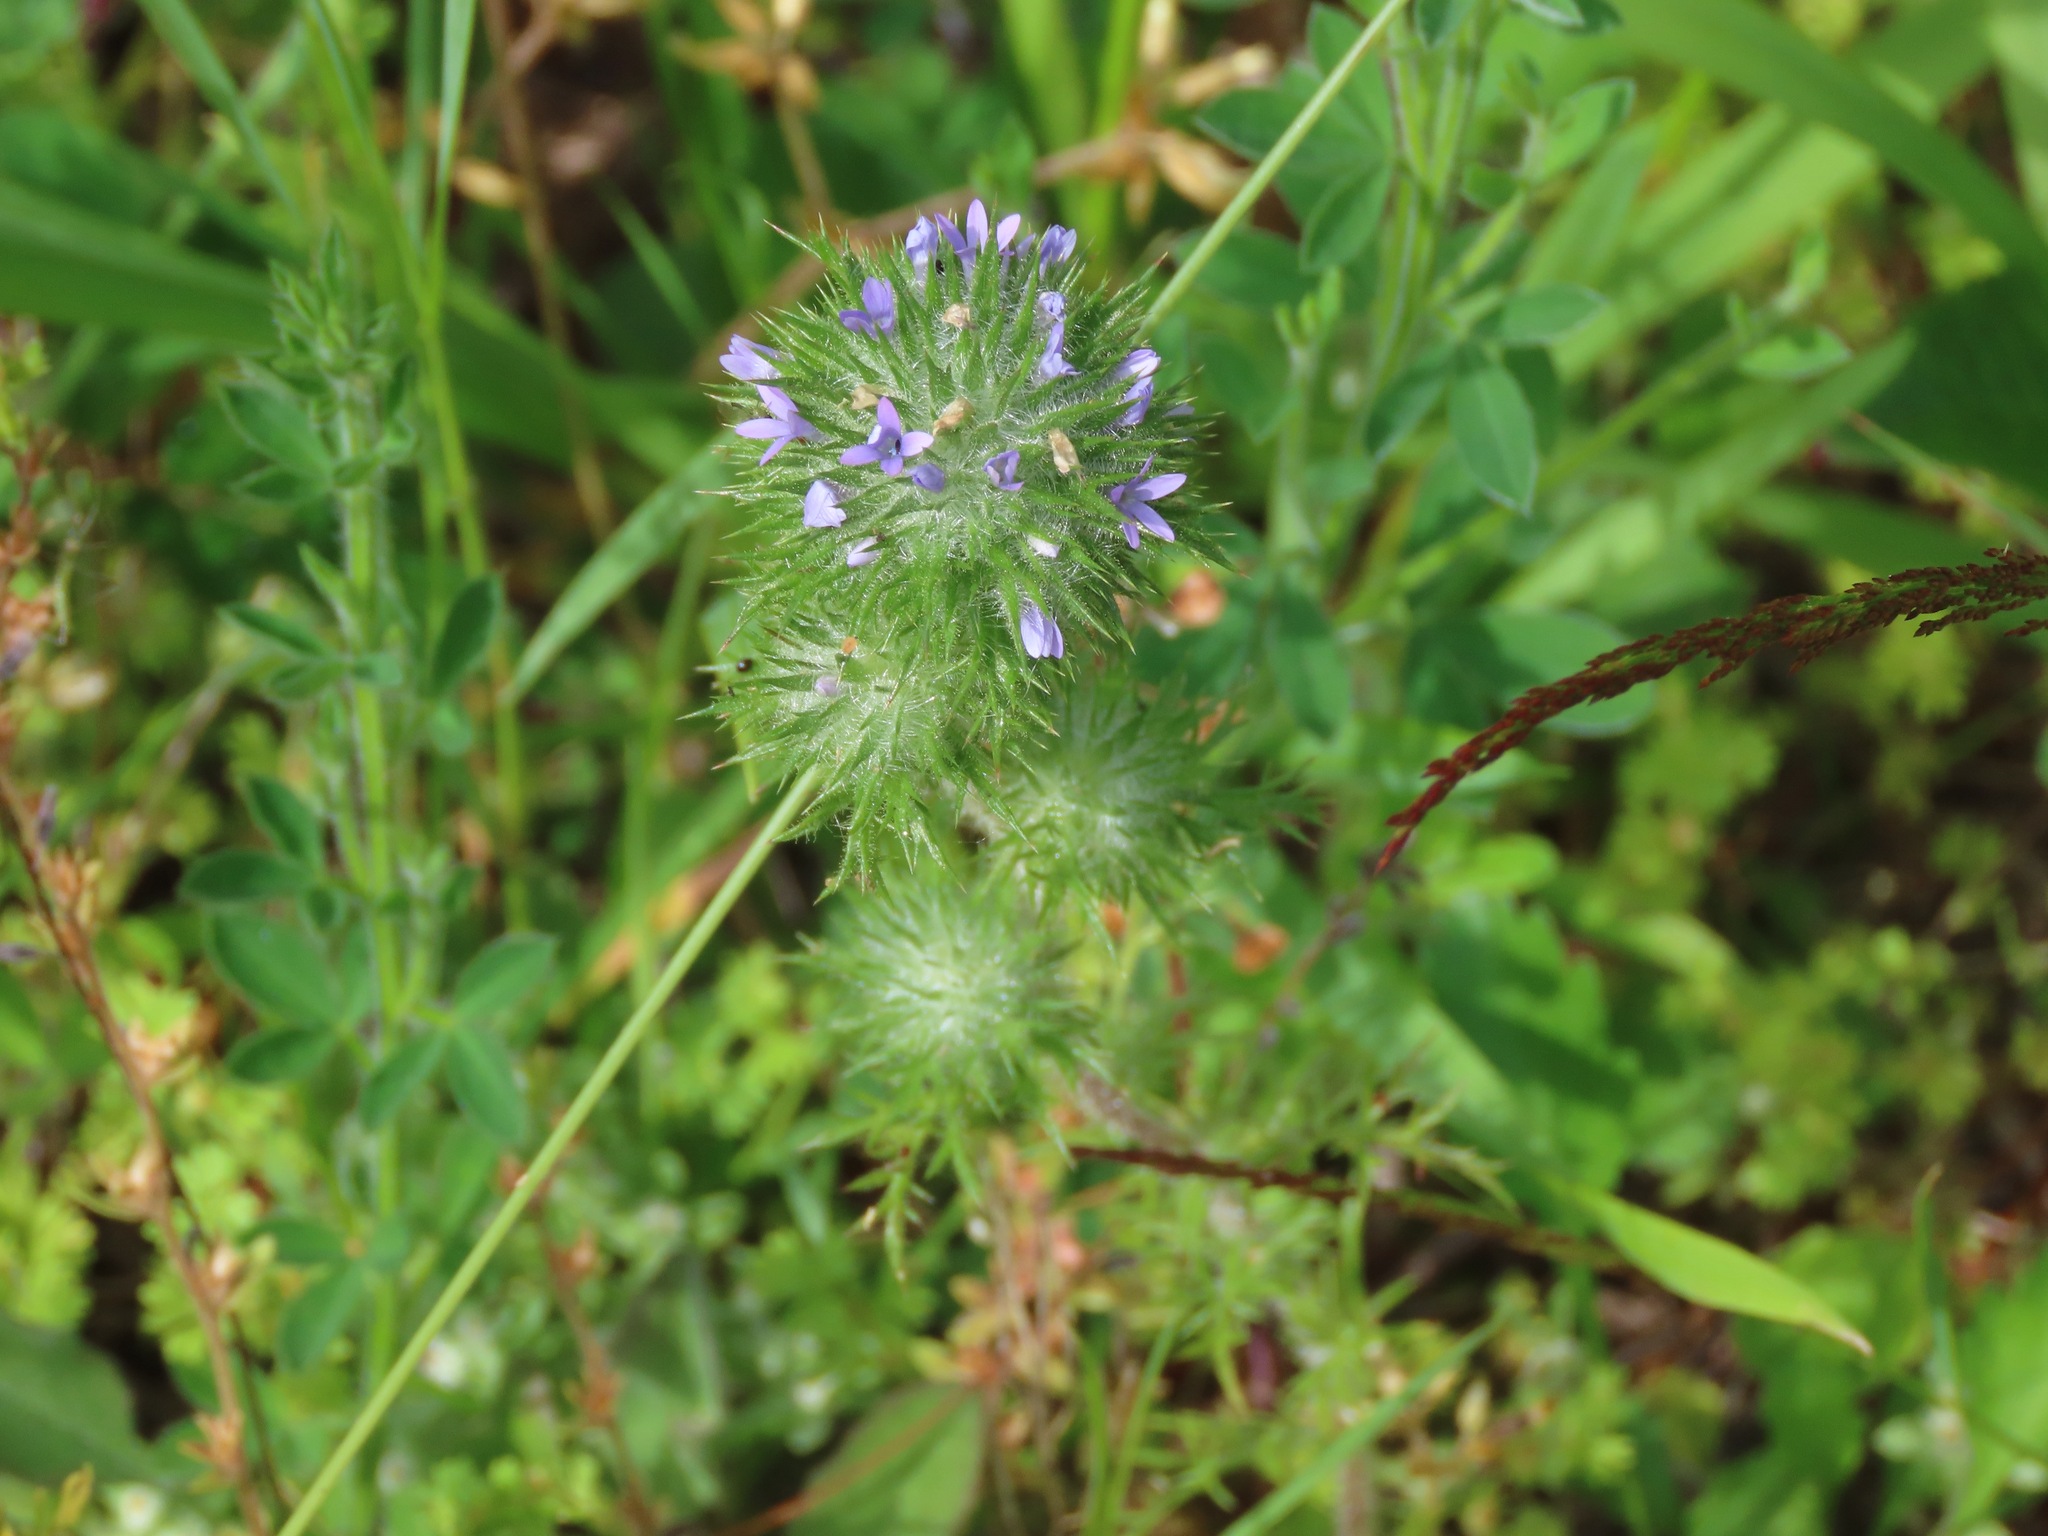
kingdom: Plantae
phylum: Tracheophyta
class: Magnoliopsida
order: Ericales
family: Polemoniaceae
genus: Navarretia
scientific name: Navarretia squarrosa
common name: Skunkweed
